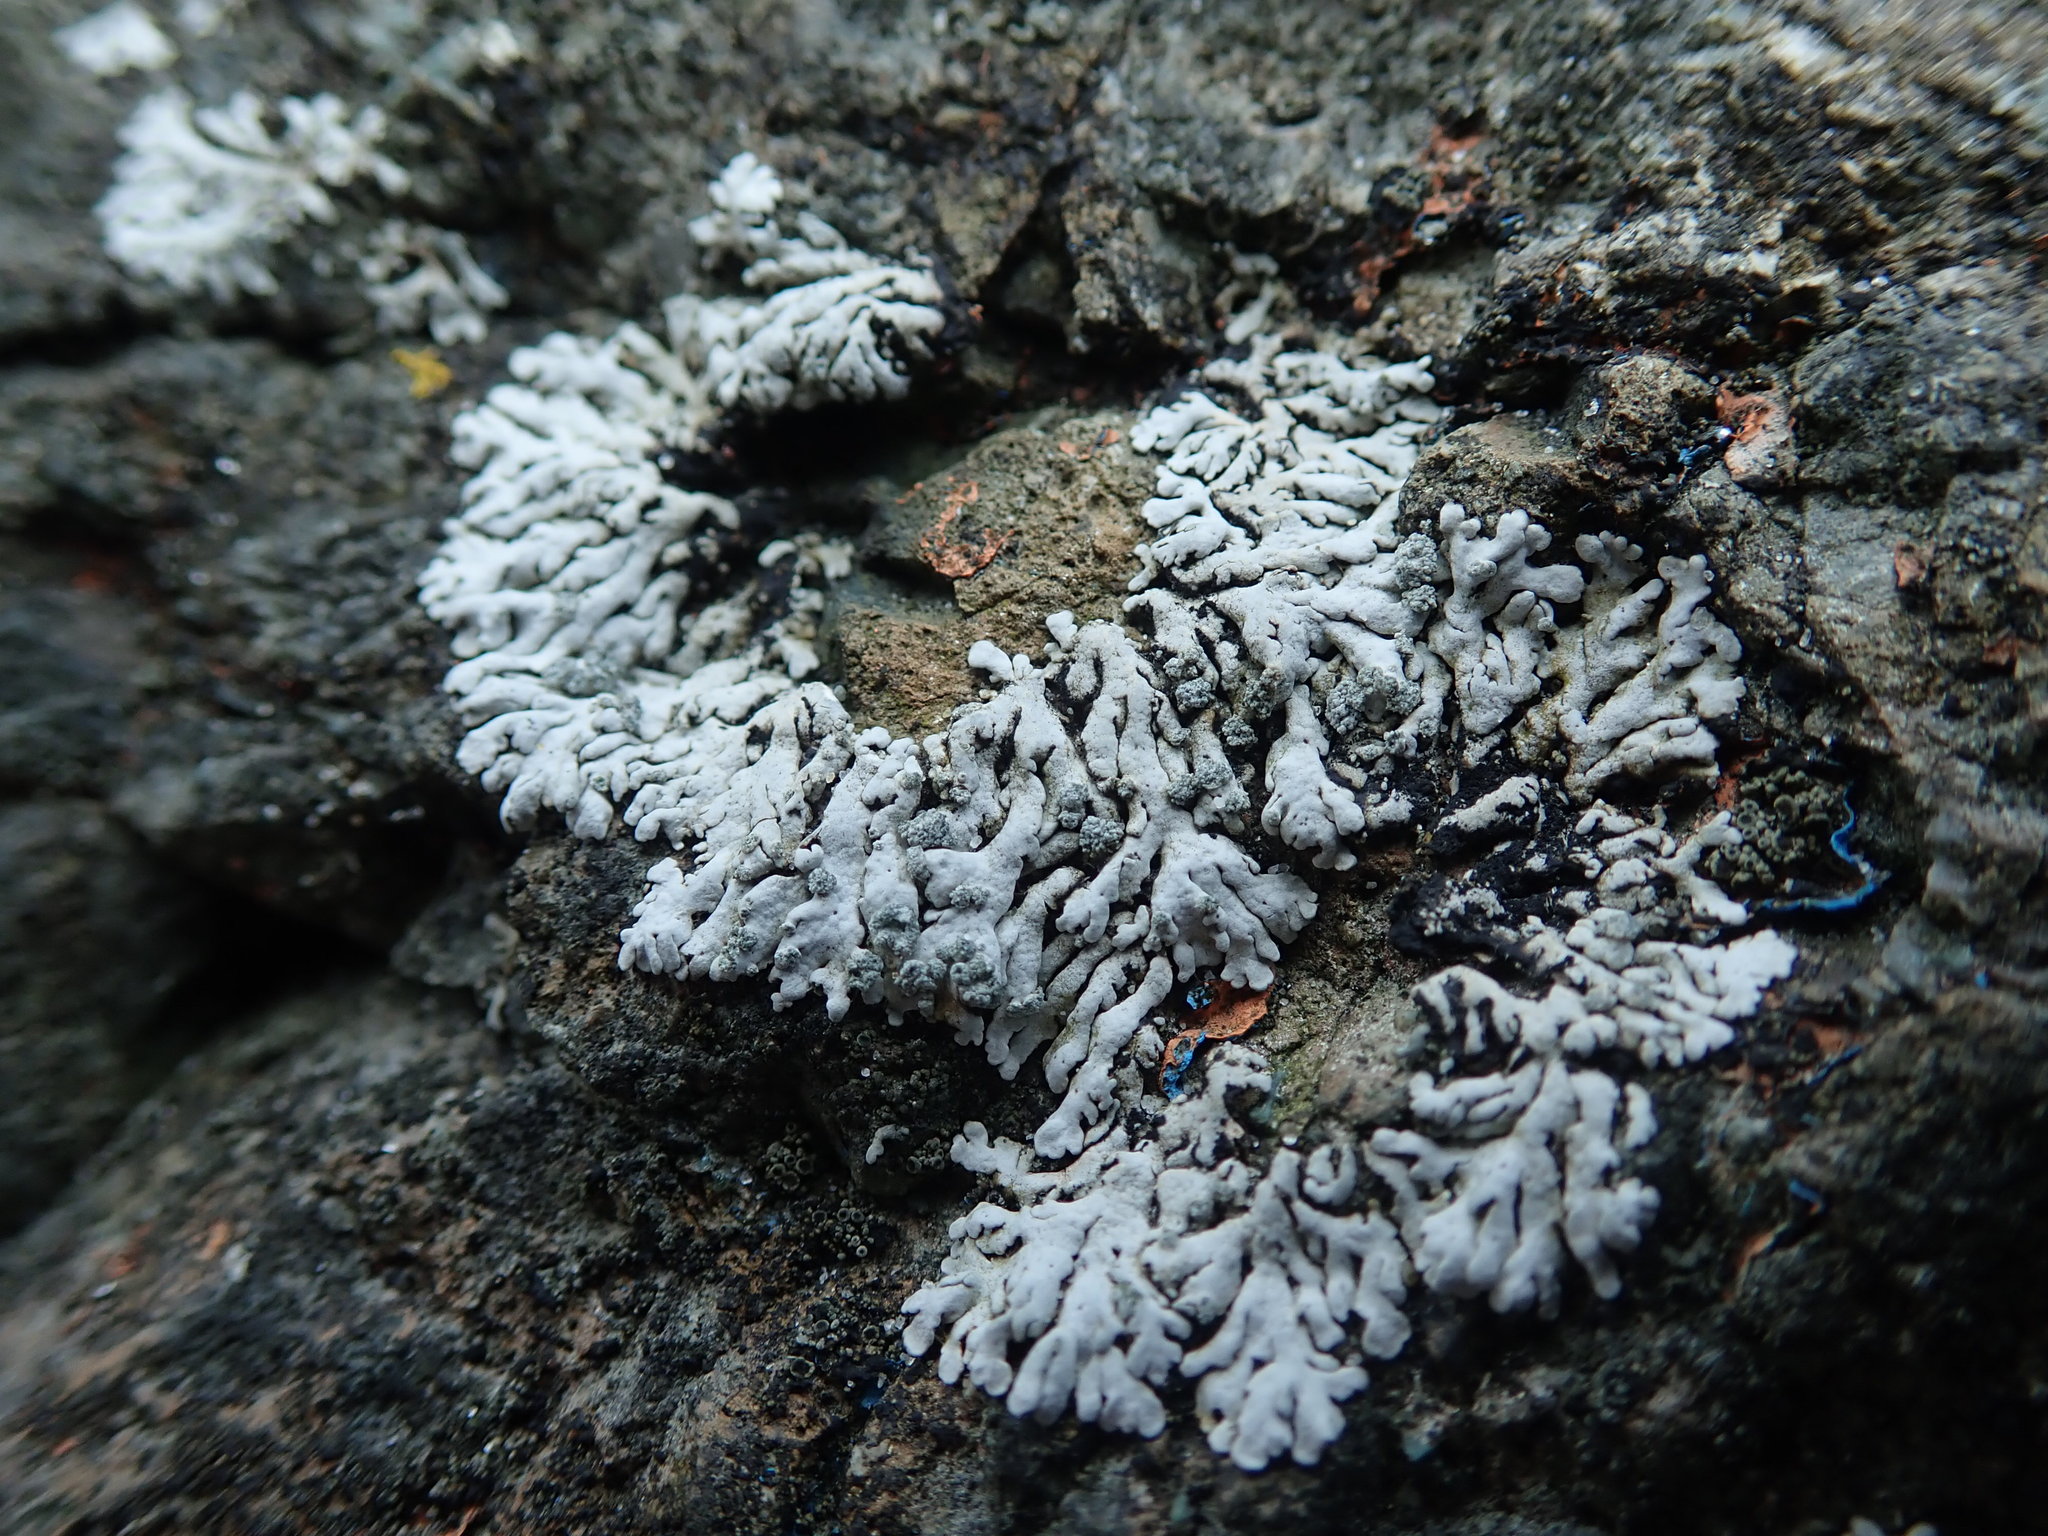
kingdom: Fungi
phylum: Ascomycota
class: Lecanoromycetes
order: Caliciales
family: Physciaceae
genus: Physcia
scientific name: Physcia caesia
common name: Blue-gray rosette lichen
